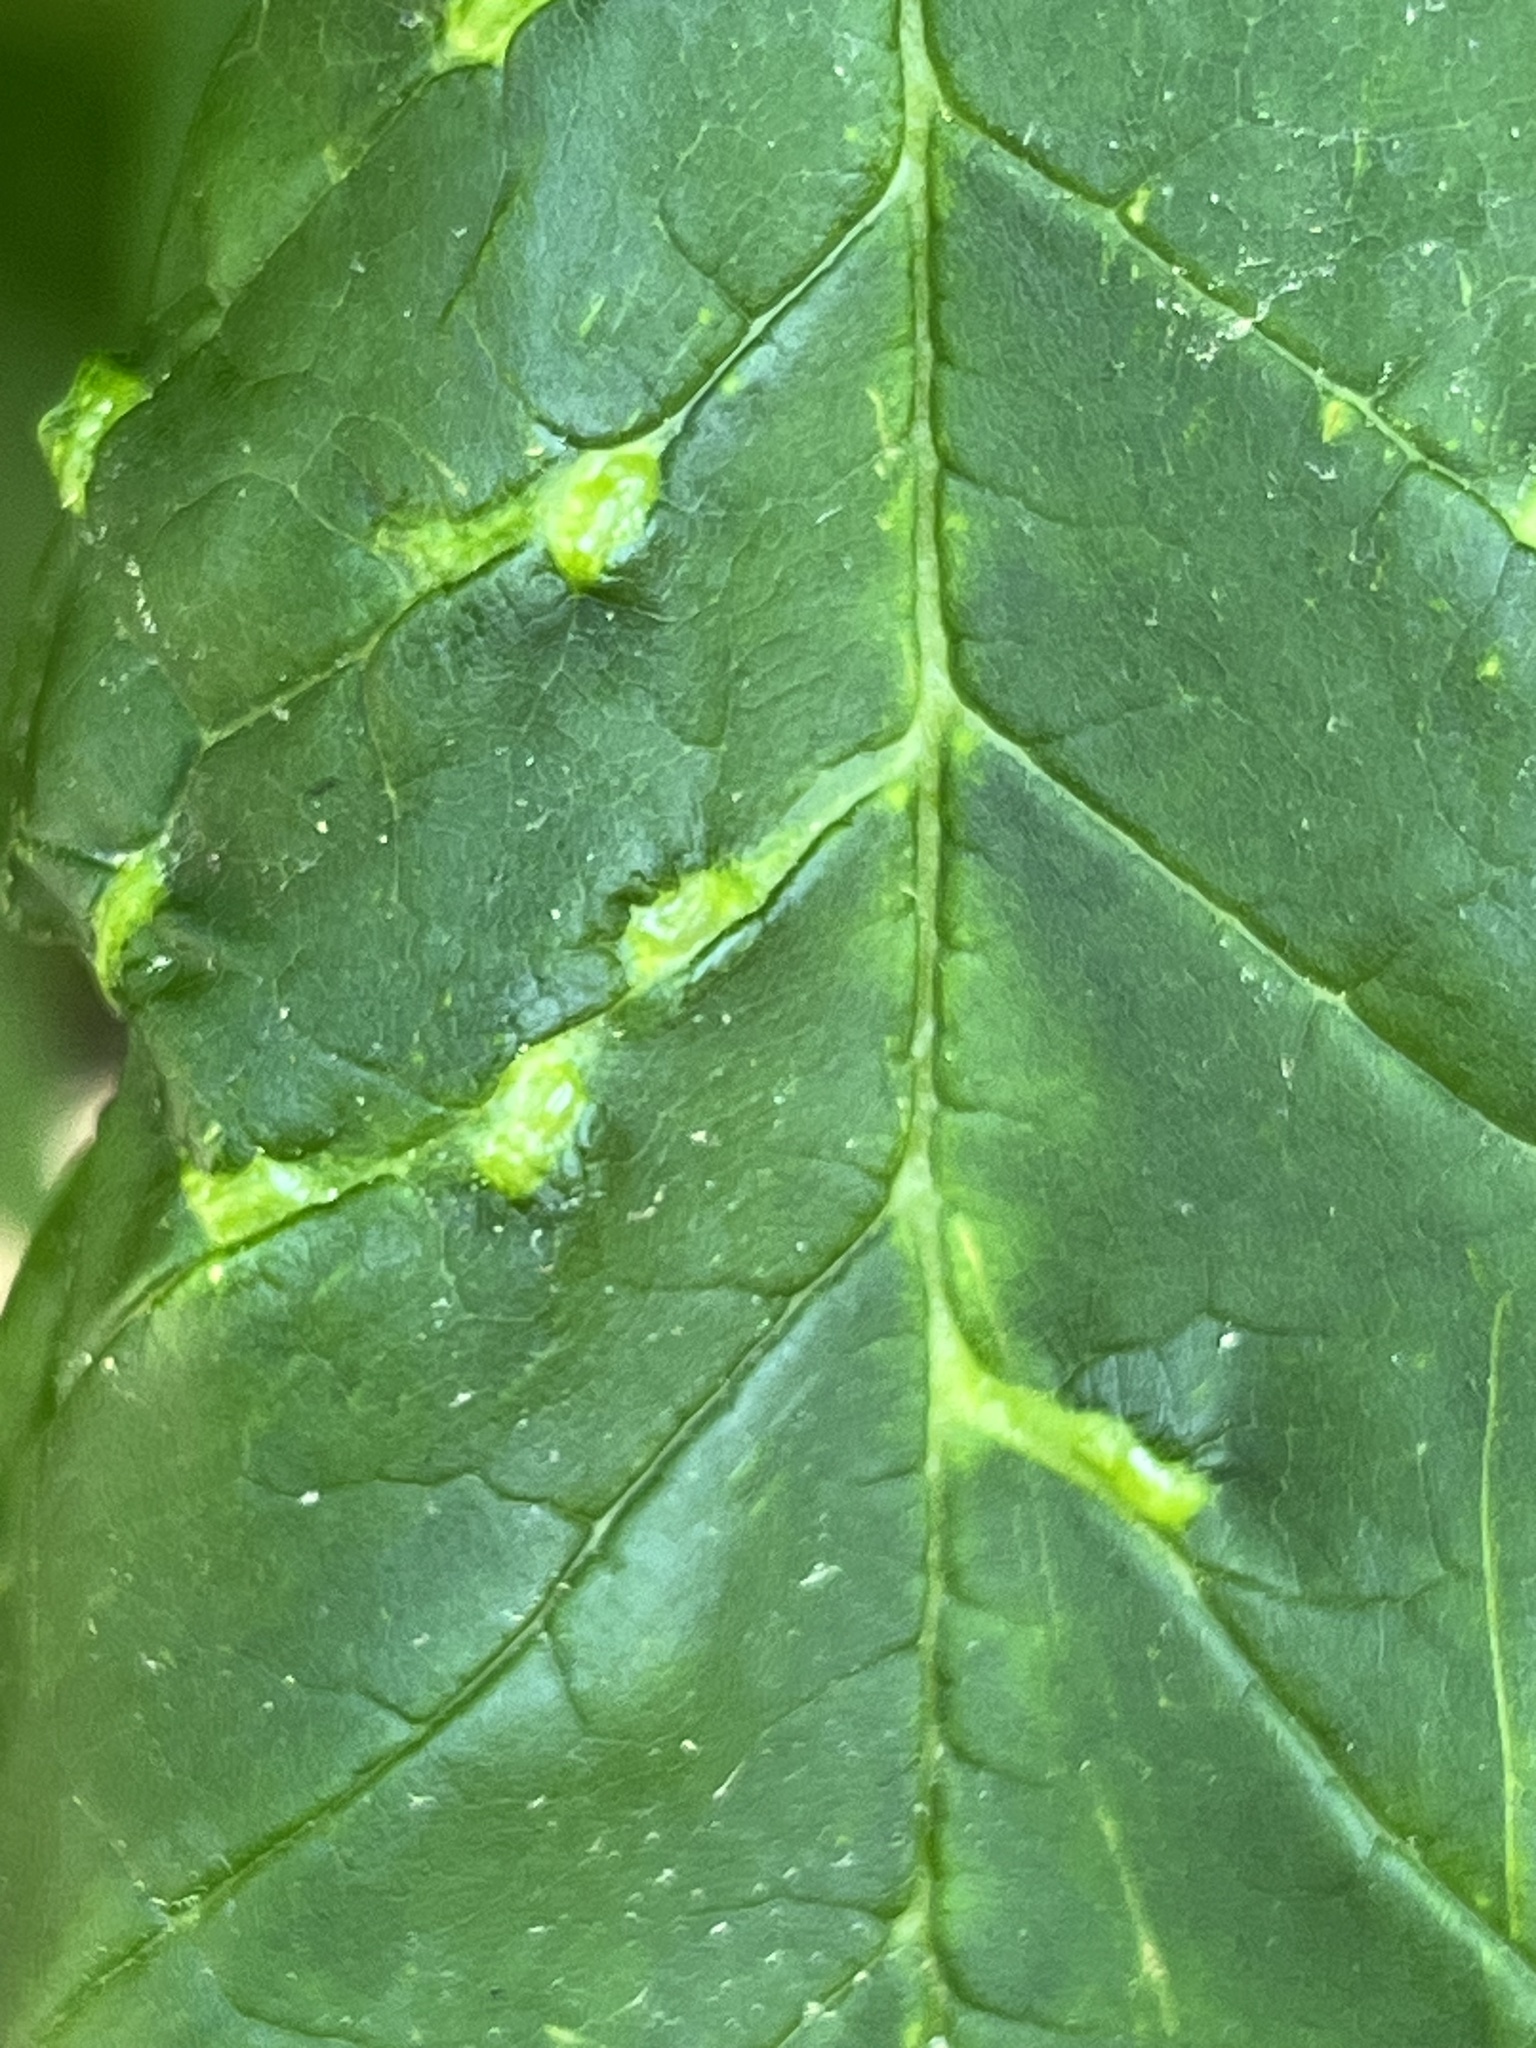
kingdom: Animalia
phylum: Arthropoda
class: Arachnida
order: Trombidiformes
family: Eriophyidae
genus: Aceria
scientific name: Aceria fraxinicola
